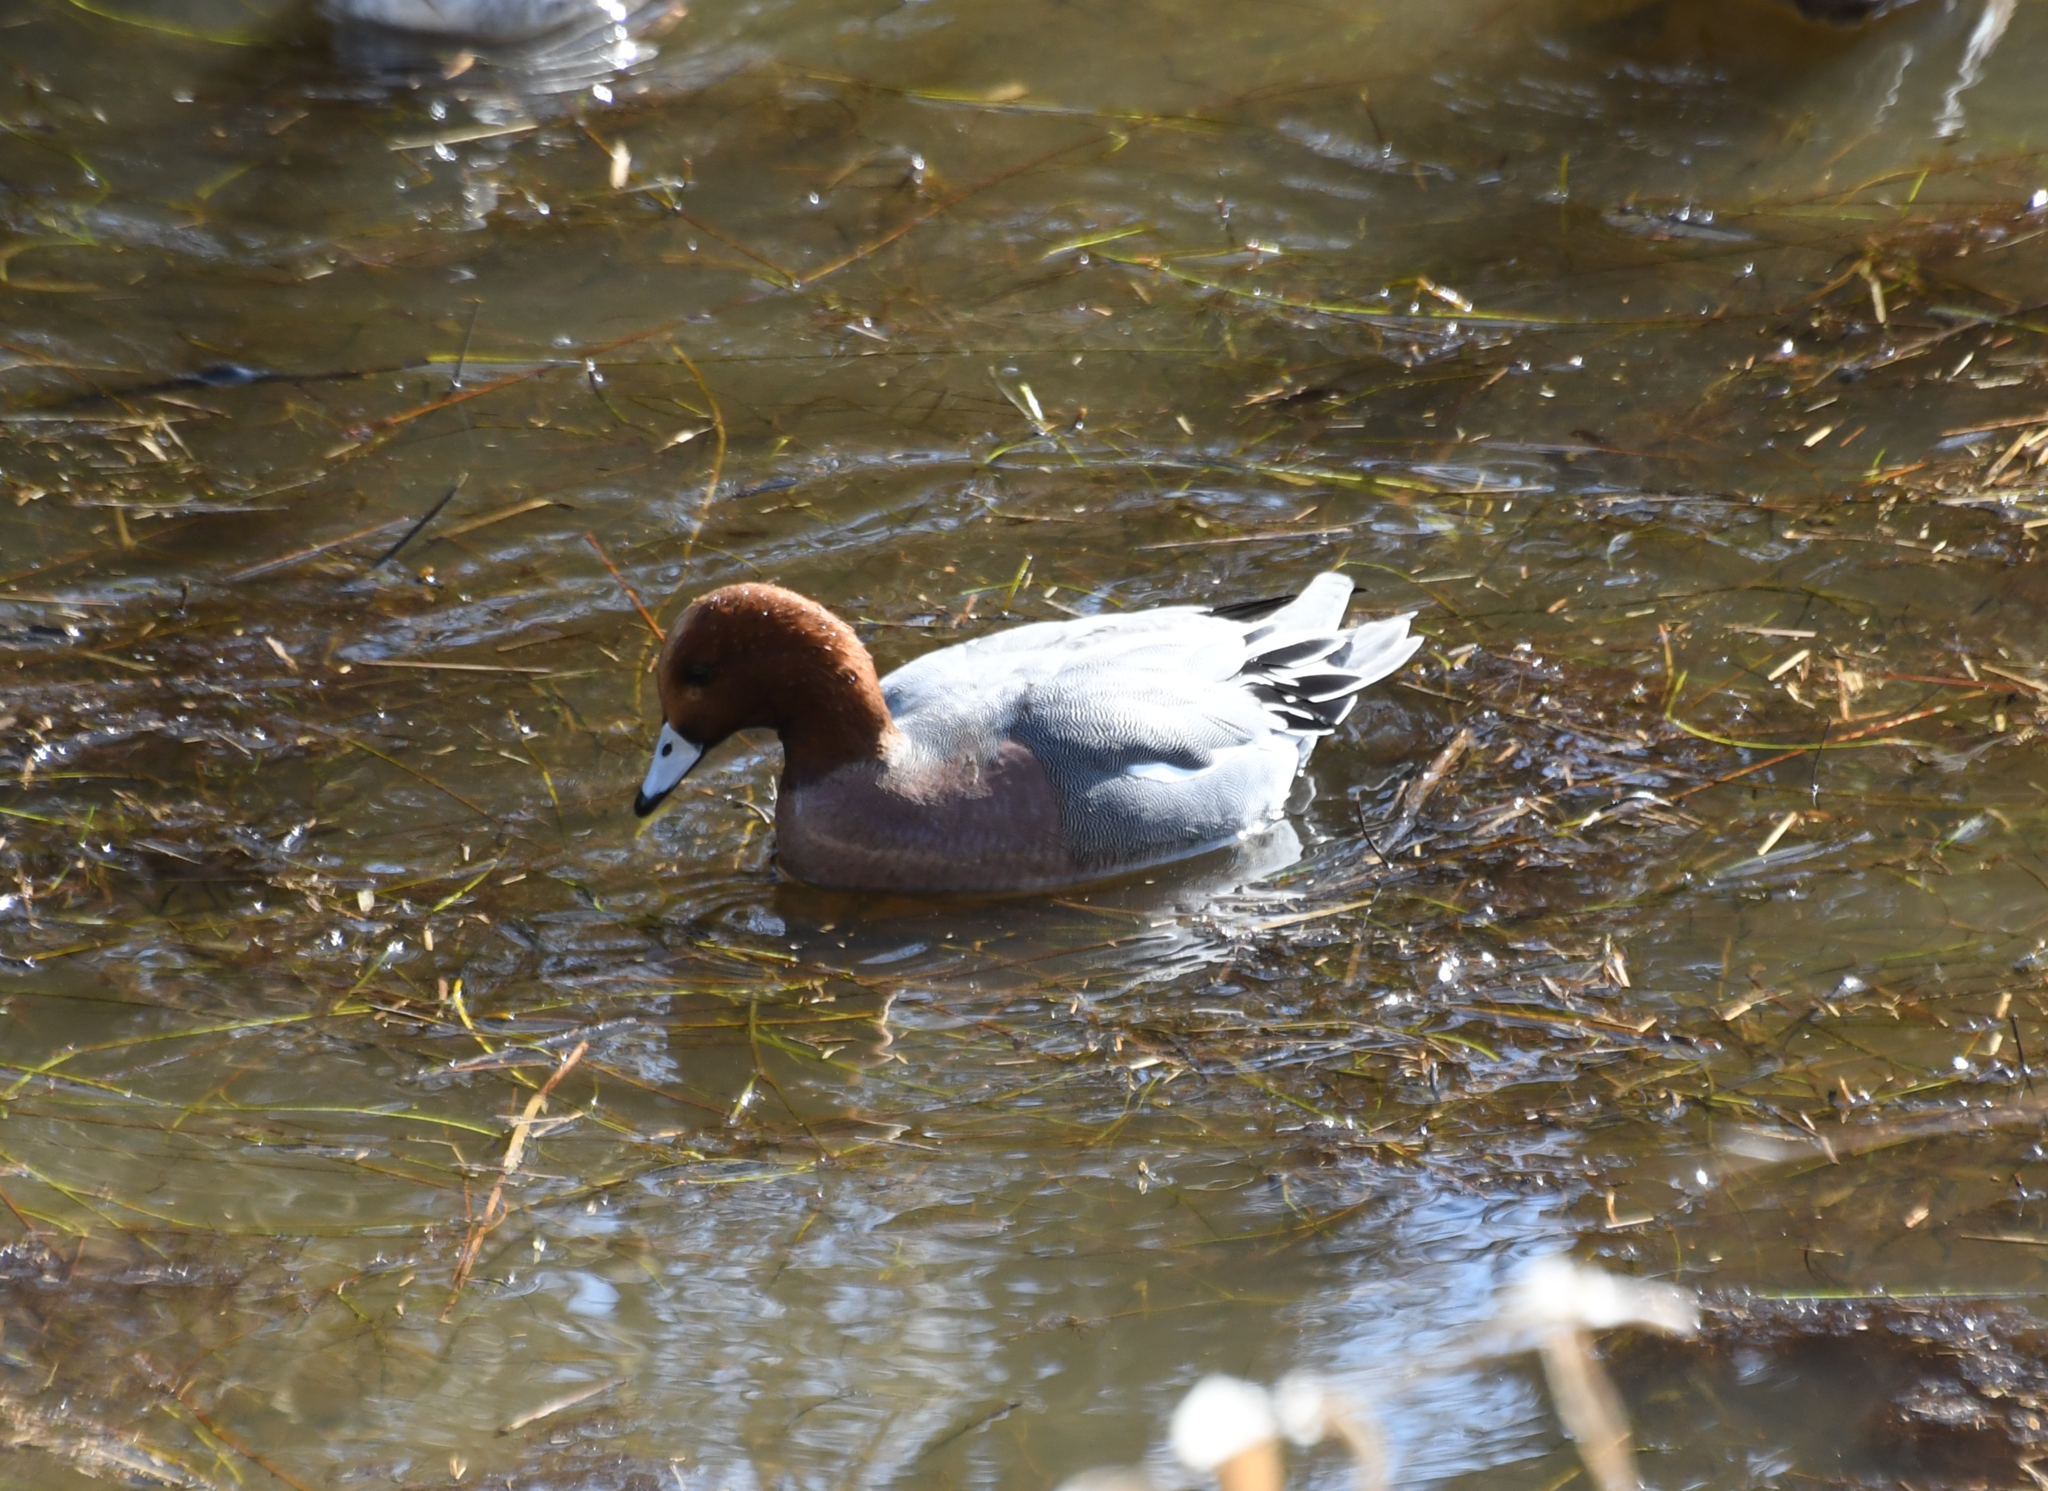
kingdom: Animalia
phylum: Chordata
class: Aves
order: Anseriformes
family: Anatidae
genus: Mareca
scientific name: Mareca penelope
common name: Eurasian wigeon
